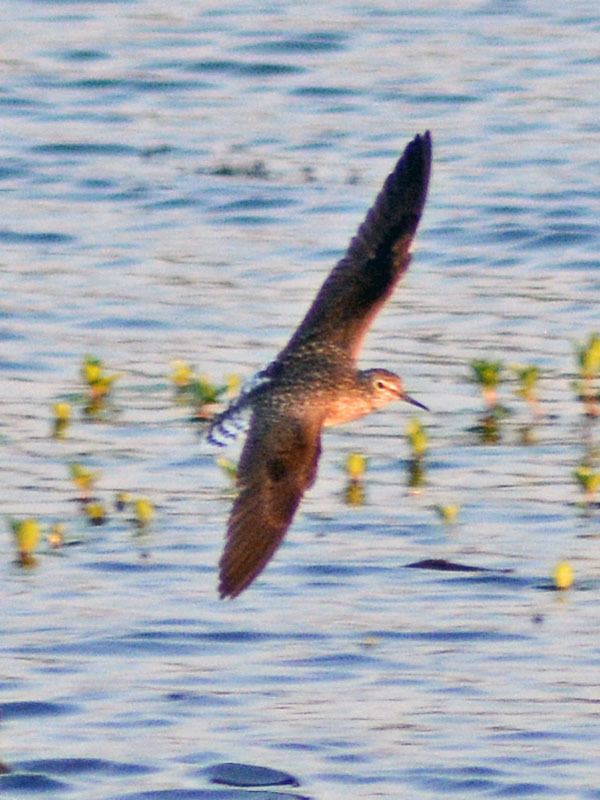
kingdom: Animalia
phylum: Chordata
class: Aves
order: Charadriiformes
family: Scolopacidae
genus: Tringa
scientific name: Tringa solitaria
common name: Solitary sandpiper
